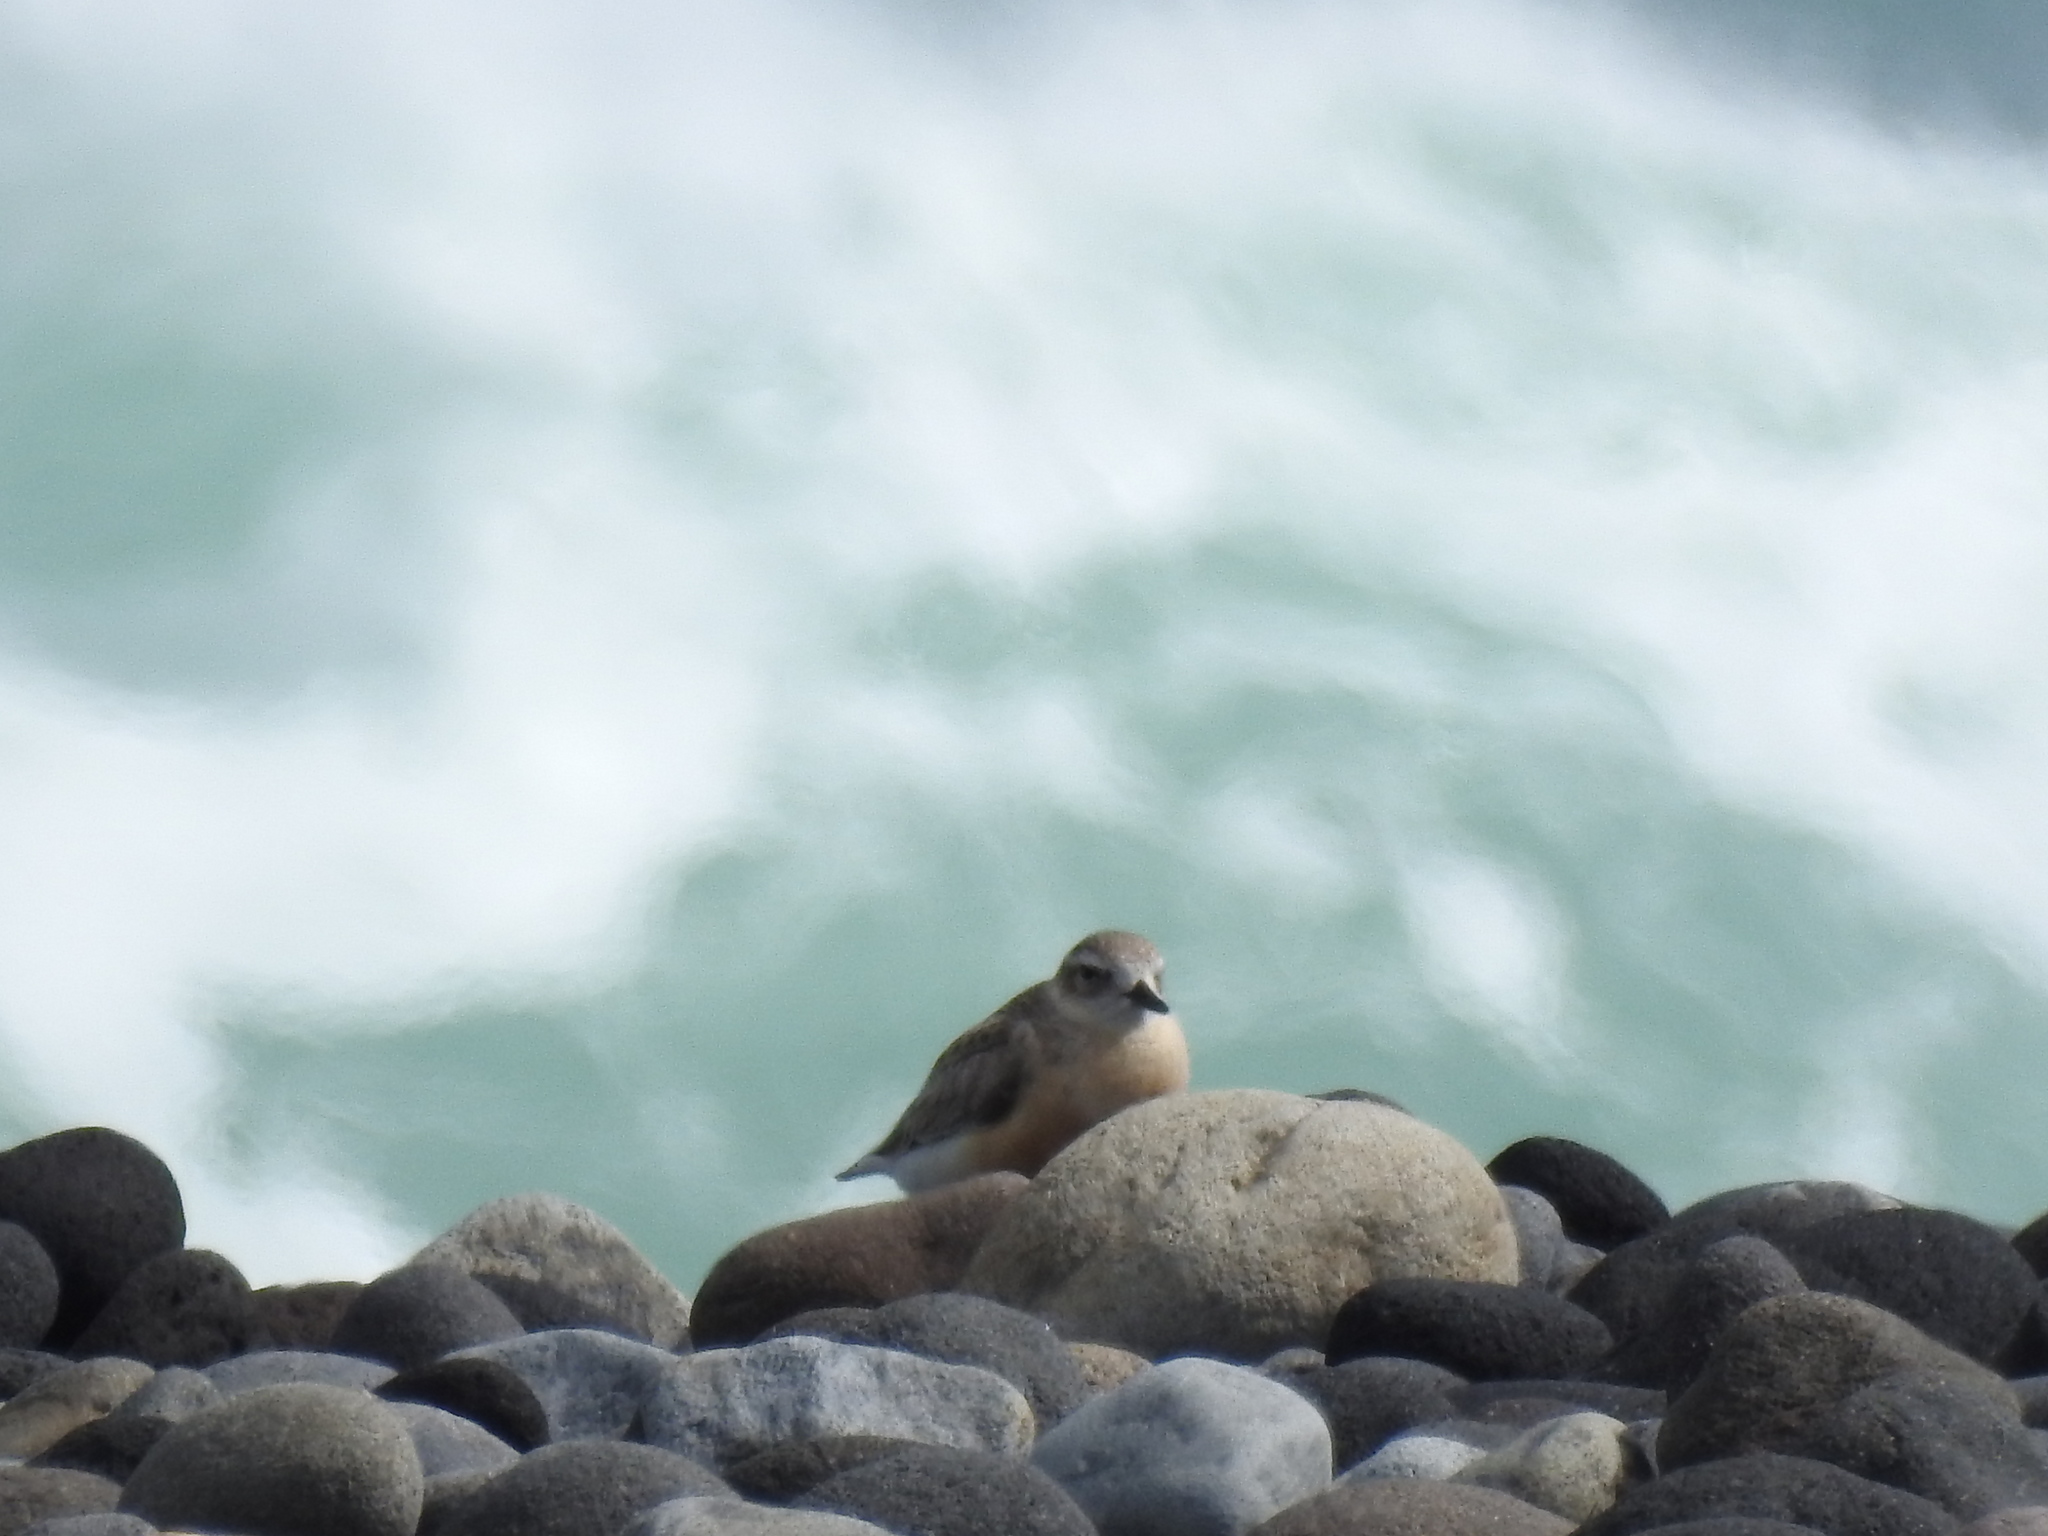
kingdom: Animalia
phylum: Chordata
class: Aves
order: Charadriiformes
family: Charadriidae
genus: Anarhynchus
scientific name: Anarhynchus
